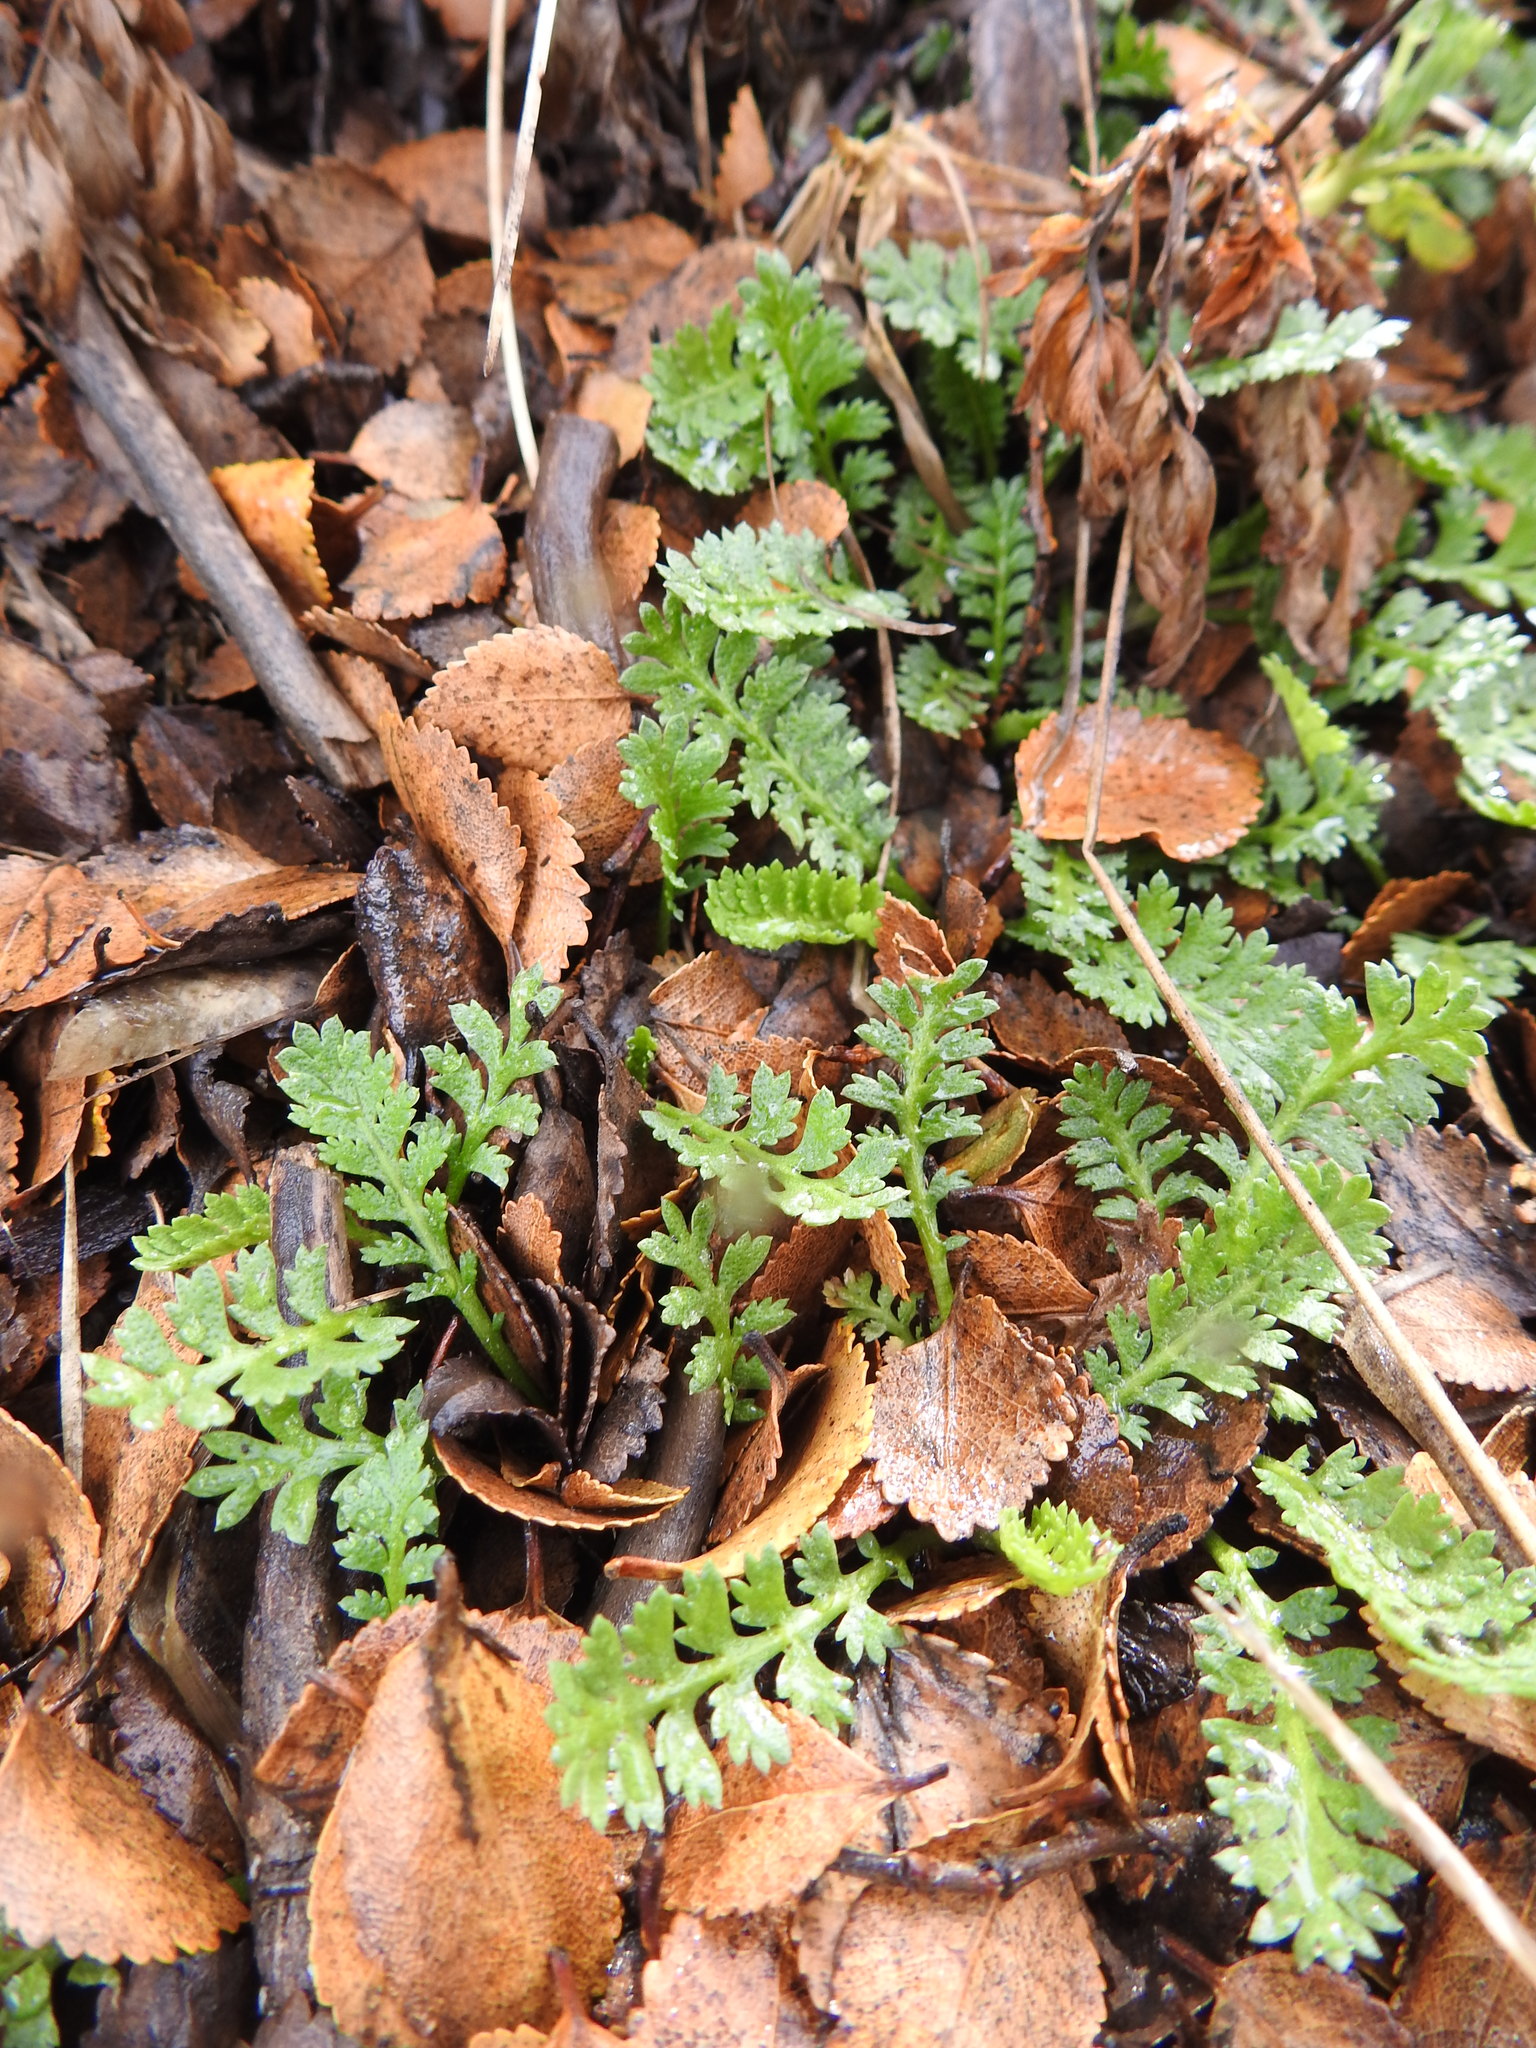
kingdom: Plantae
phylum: Tracheophyta
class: Magnoliopsida
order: Asterales
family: Asteraceae
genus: Leptinella
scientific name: Leptinella scariosa
